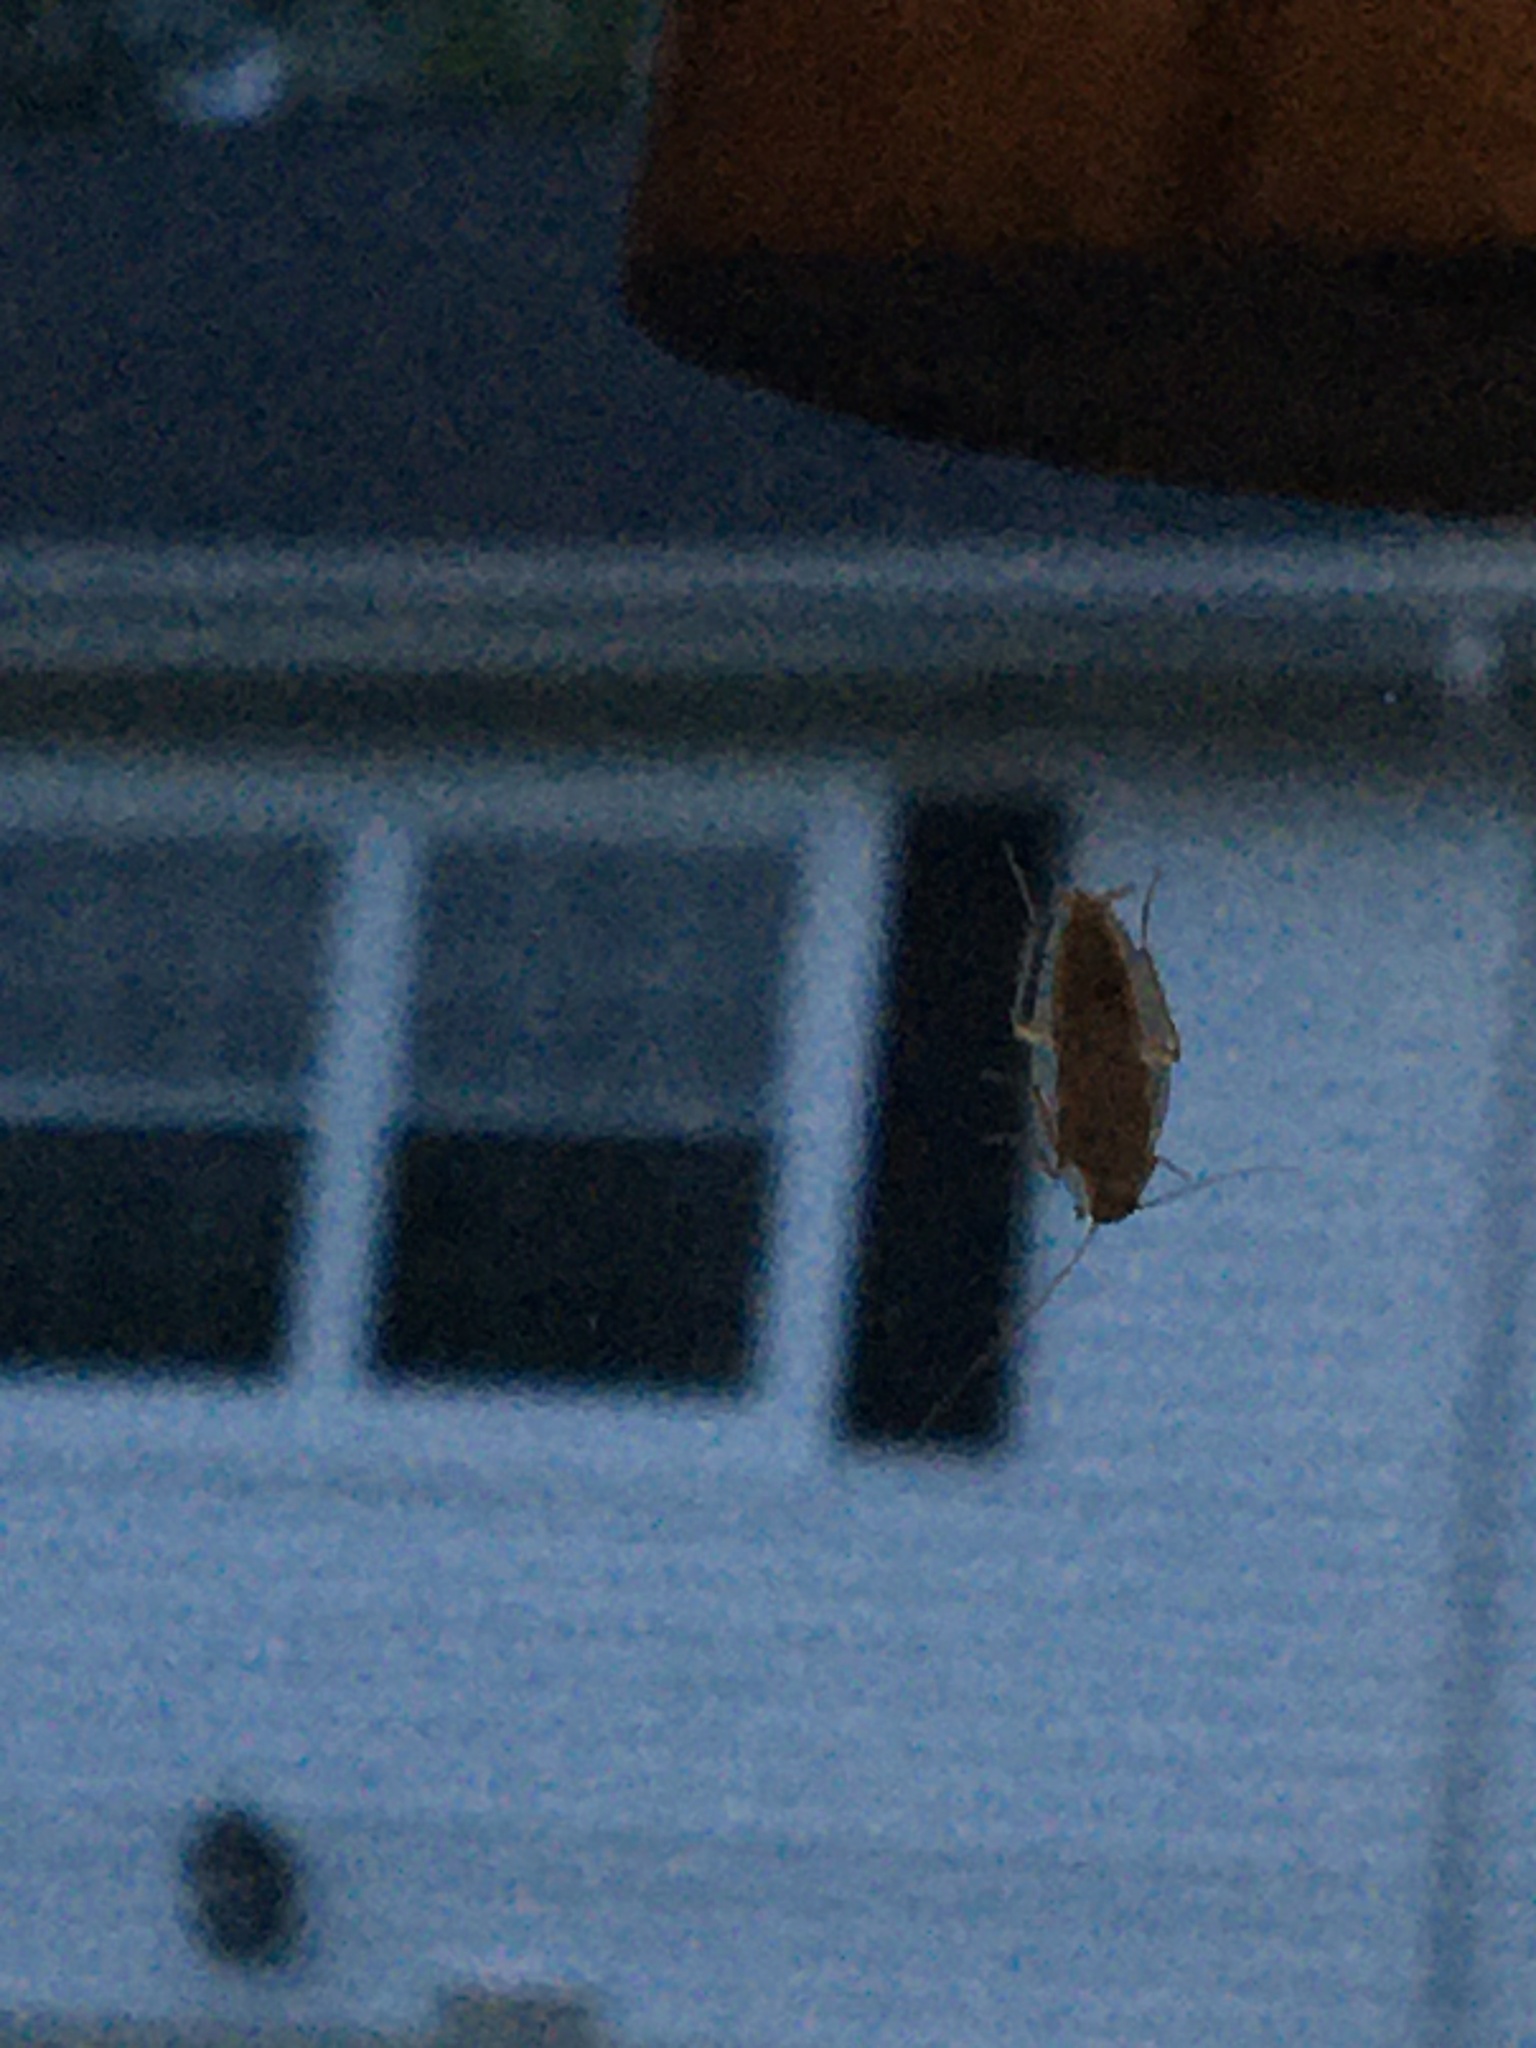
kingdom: Animalia
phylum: Arthropoda
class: Insecta
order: Blattodea
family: Ectobiidae
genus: Ectobius
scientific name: Ectobius pallidus
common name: Tawny cockroach
